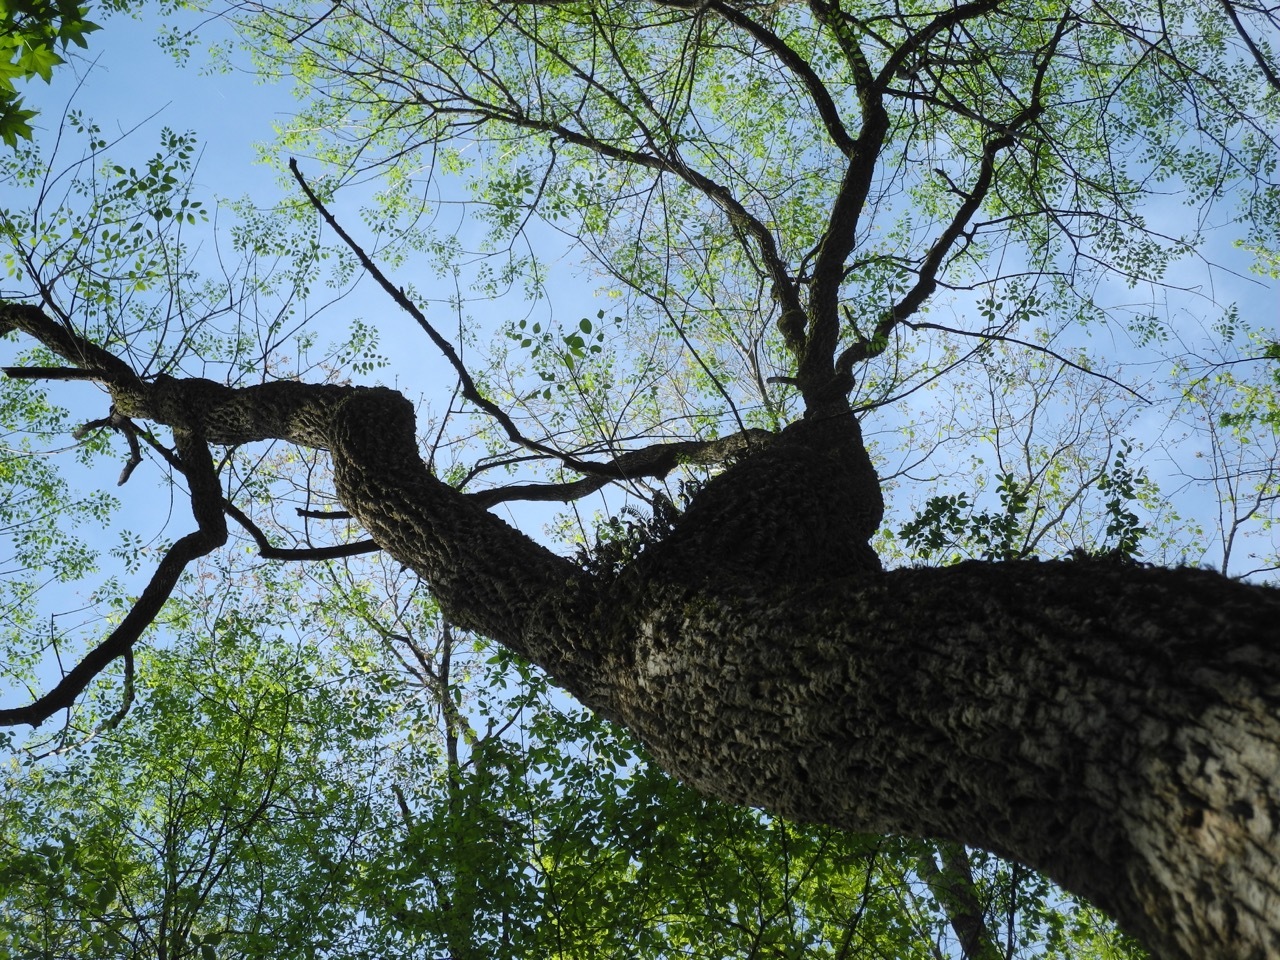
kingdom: Plantae
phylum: Tracheophyta
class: Magnoliopsida
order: Lamiales
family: Oleaceae
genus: Fraxinus
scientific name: Fraxinus pennsylvanica
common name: Green ash
